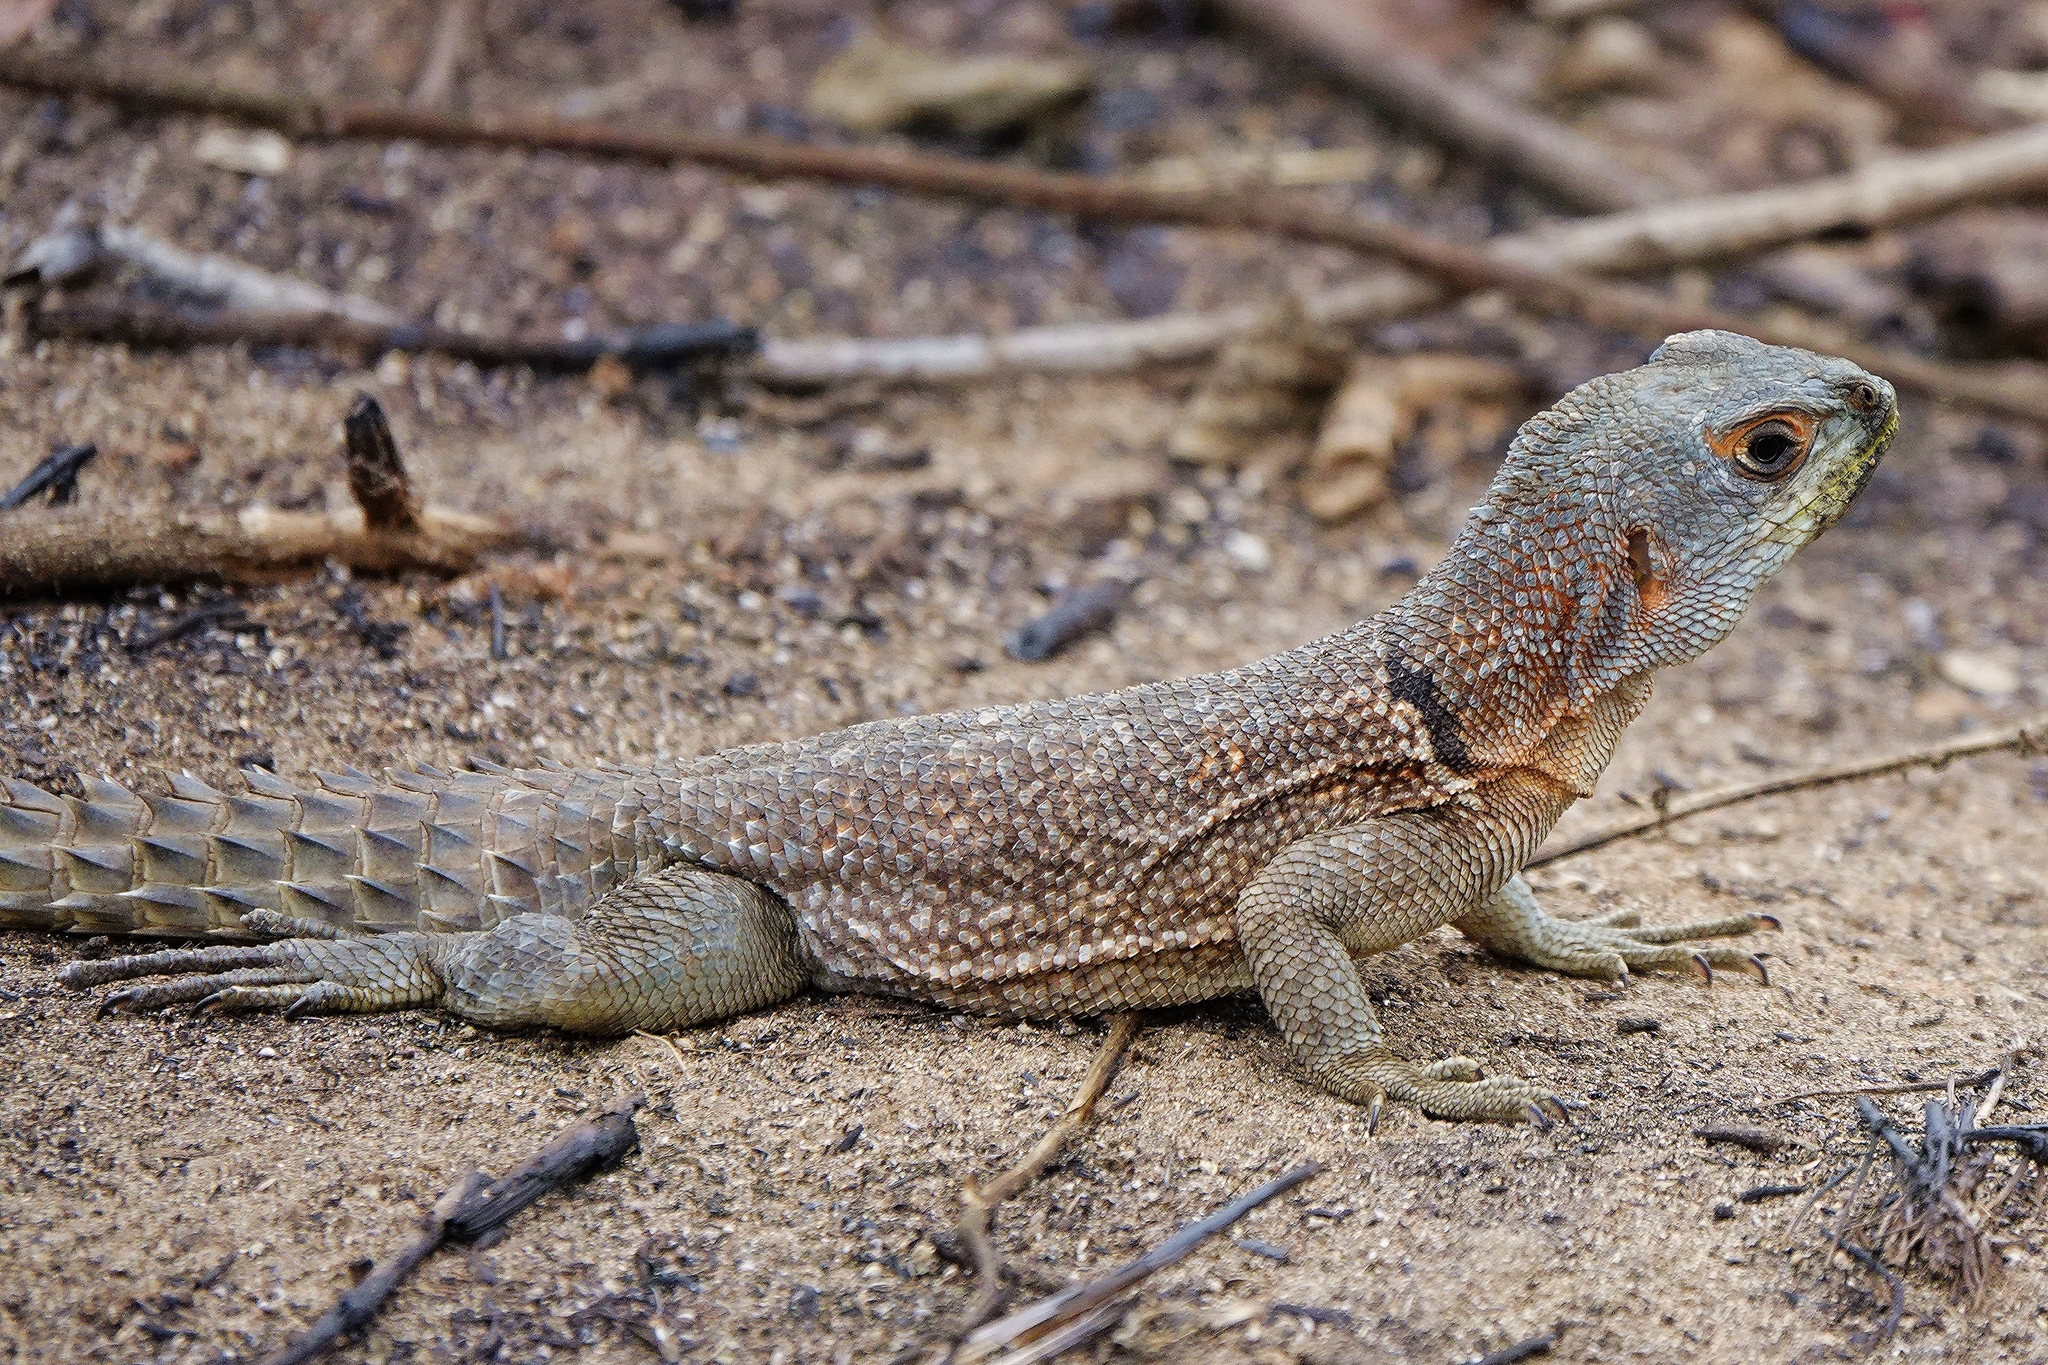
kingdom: Animalia
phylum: Chordata
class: Squamata
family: Opluridae
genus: Oplurus
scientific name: Oplurus cuvieri
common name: Cuvier's madagascar swift
